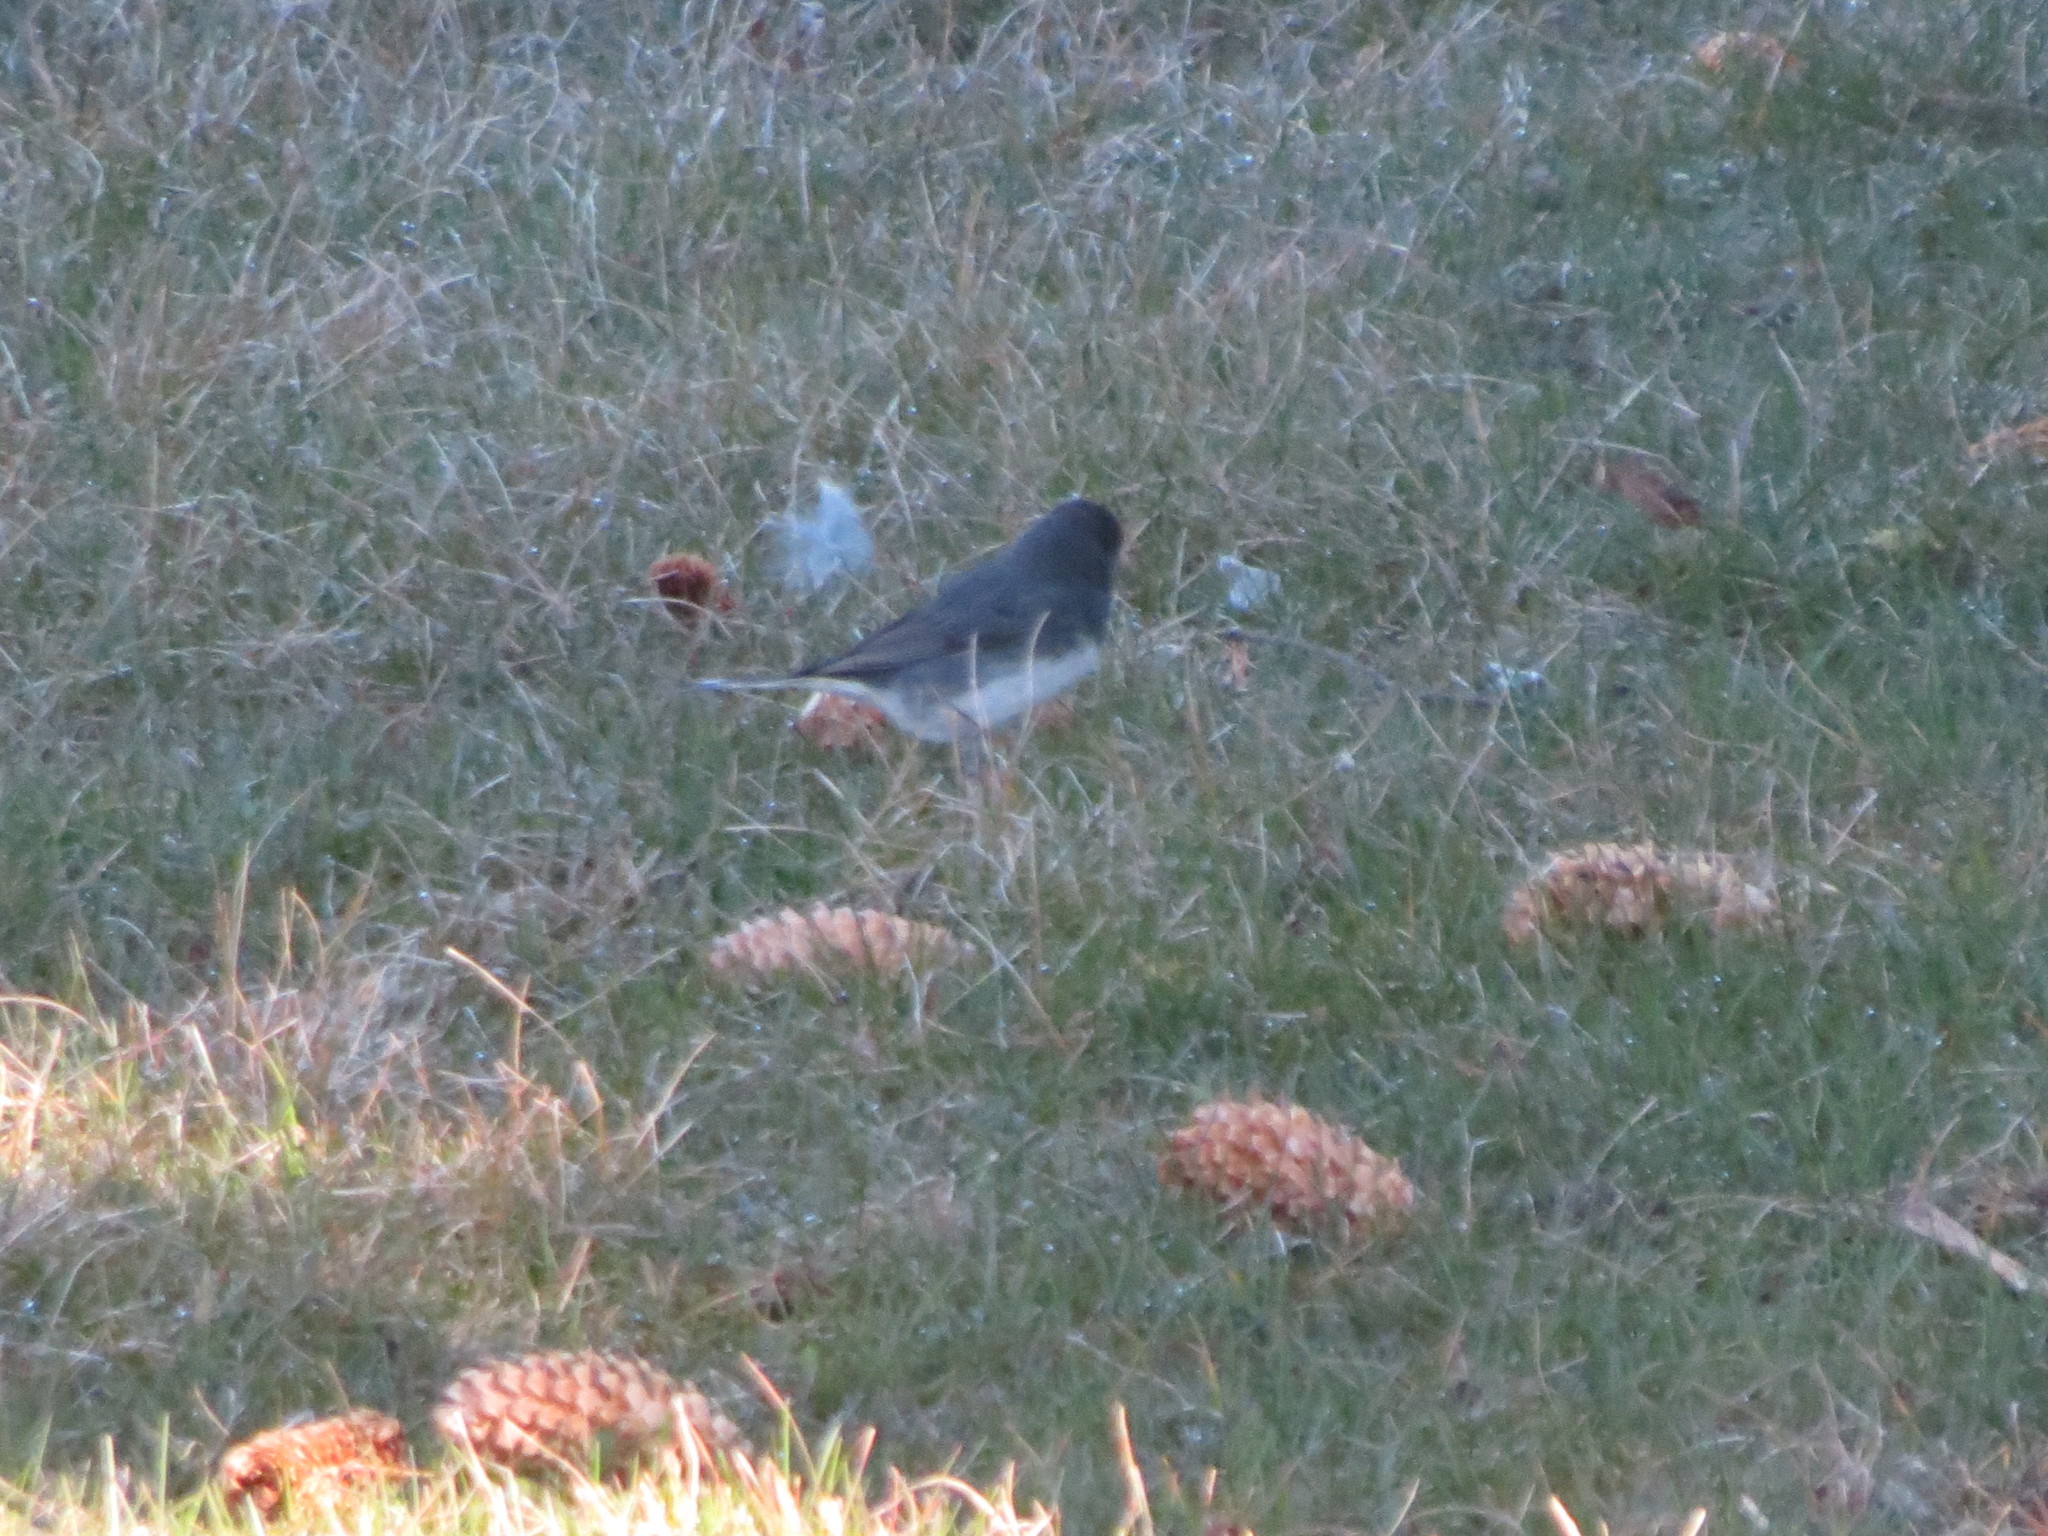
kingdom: Animalia
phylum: Chordata
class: Aves
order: Passeriformes
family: Passerellidae
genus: Junco
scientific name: Junco hyemalis
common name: Dark-eyed junco
